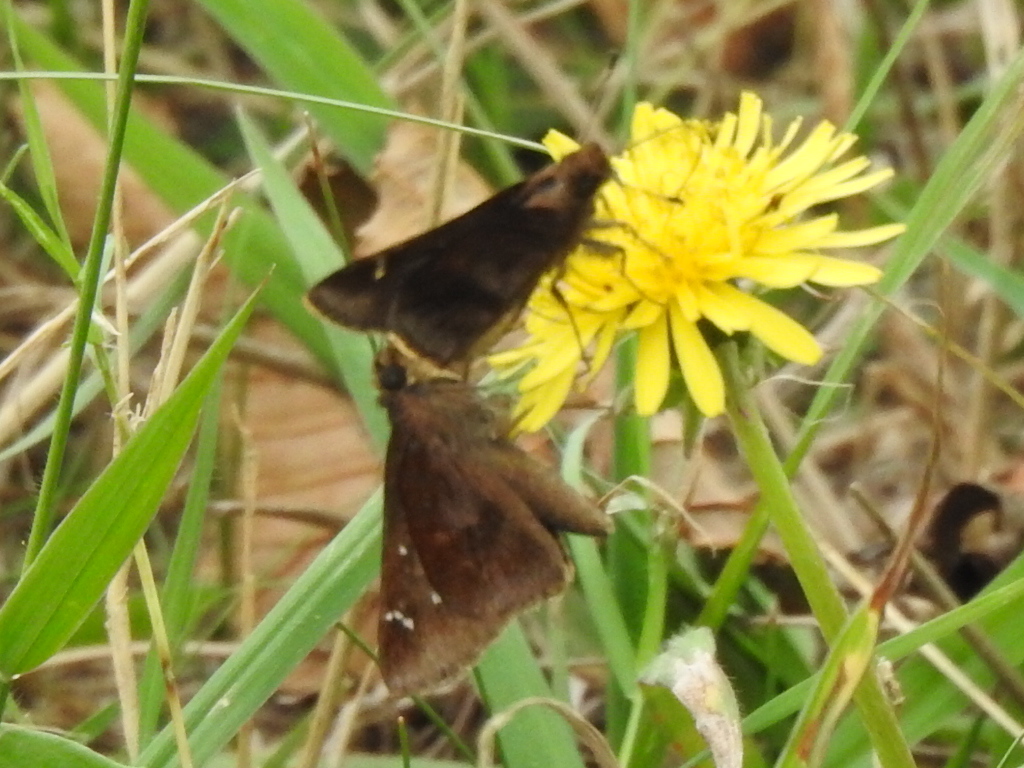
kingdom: Animalia
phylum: Arthropoda
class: Insecta
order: Lepidoptera
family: Hesperiidae
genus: Lerema
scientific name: Lerema accius
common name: Clouded skipper
